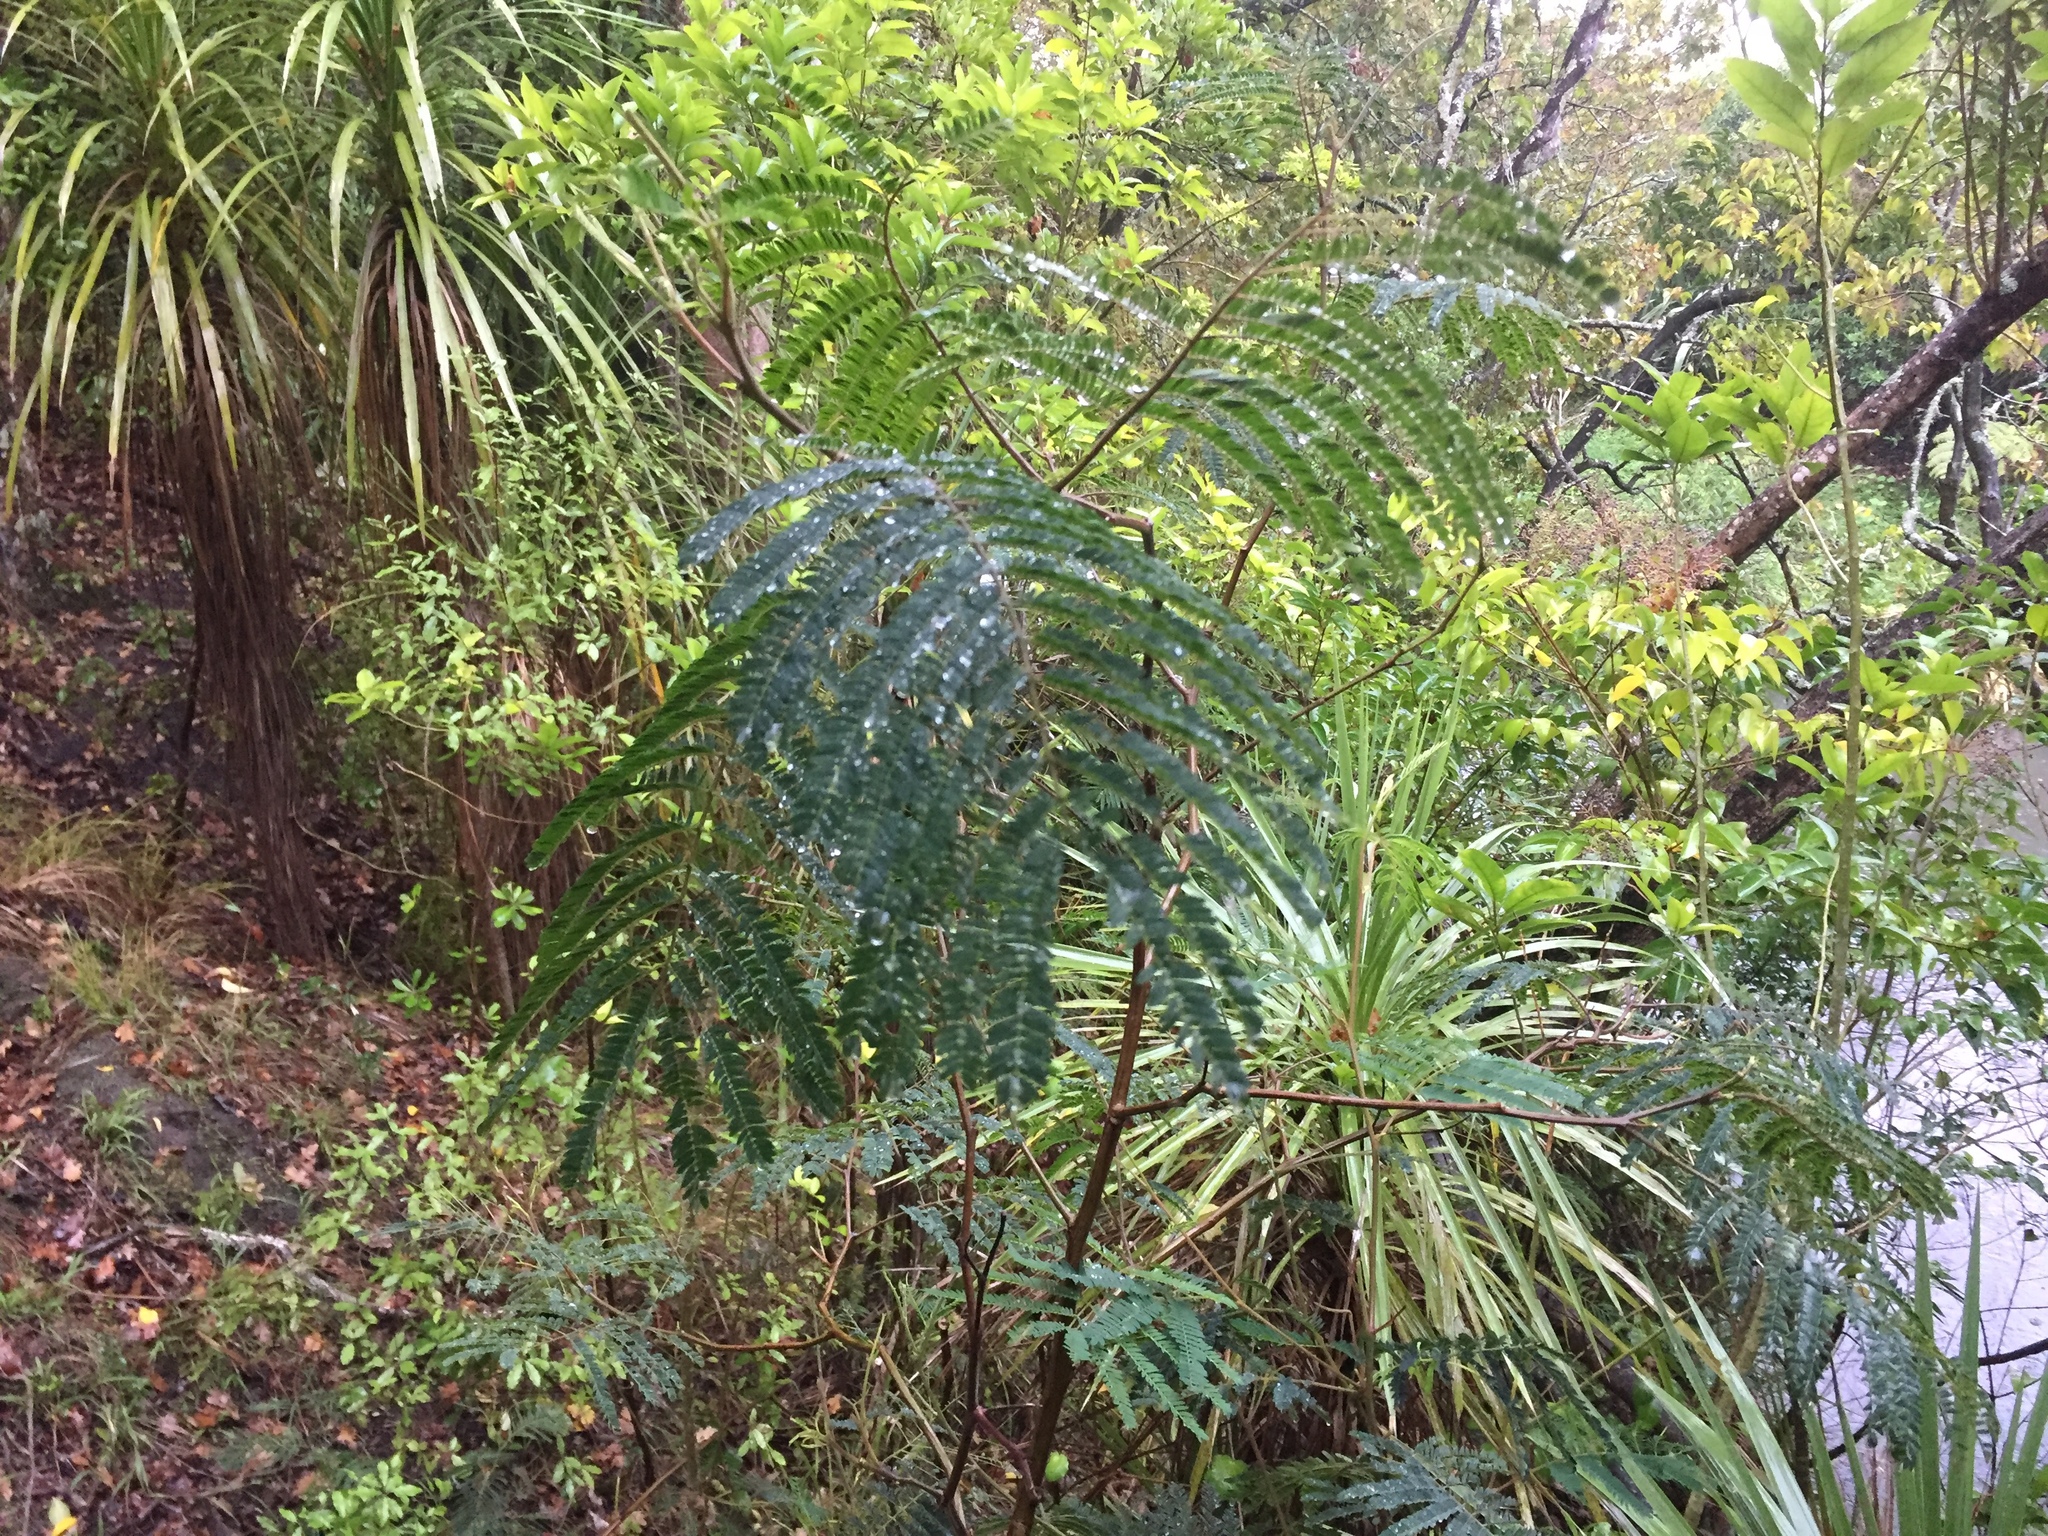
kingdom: Plantae
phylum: Tracheophyta
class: Magnoliopsida
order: Fabales
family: Fabaceae
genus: Paraserianthes
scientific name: Paraserianthes lophantha
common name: Plume albizia
